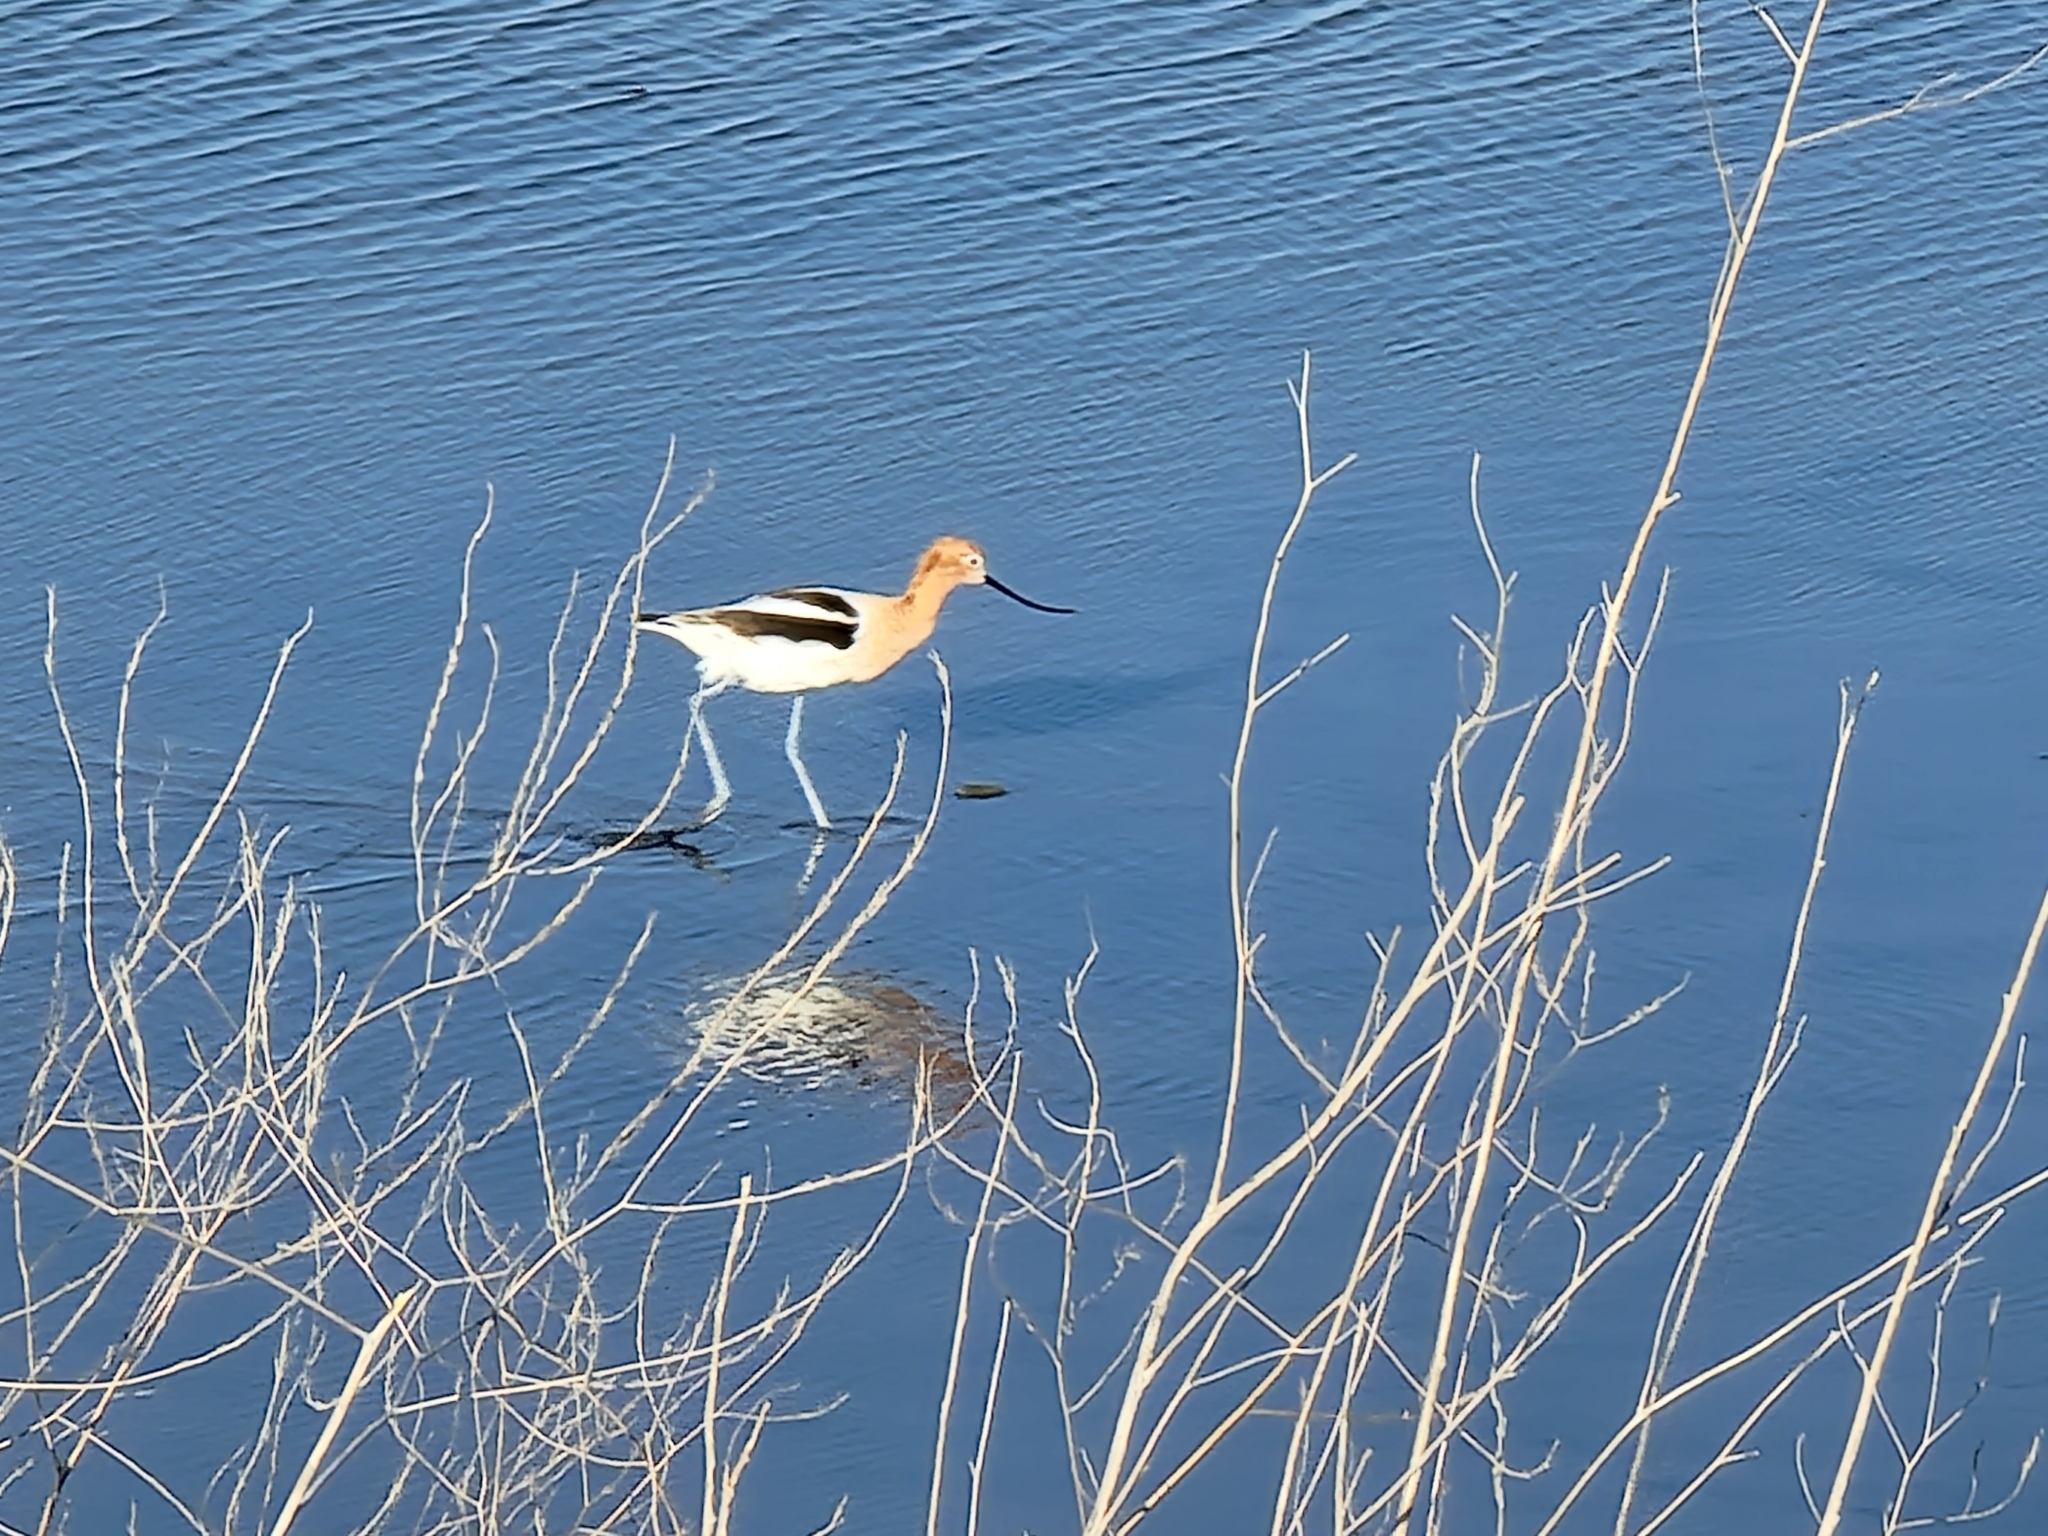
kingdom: Animalia
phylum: Chordata
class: Aves
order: Charadriiformes
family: Recurvirostridae
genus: Recurvirostra
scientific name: Recurvirostra americana
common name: American avocet
